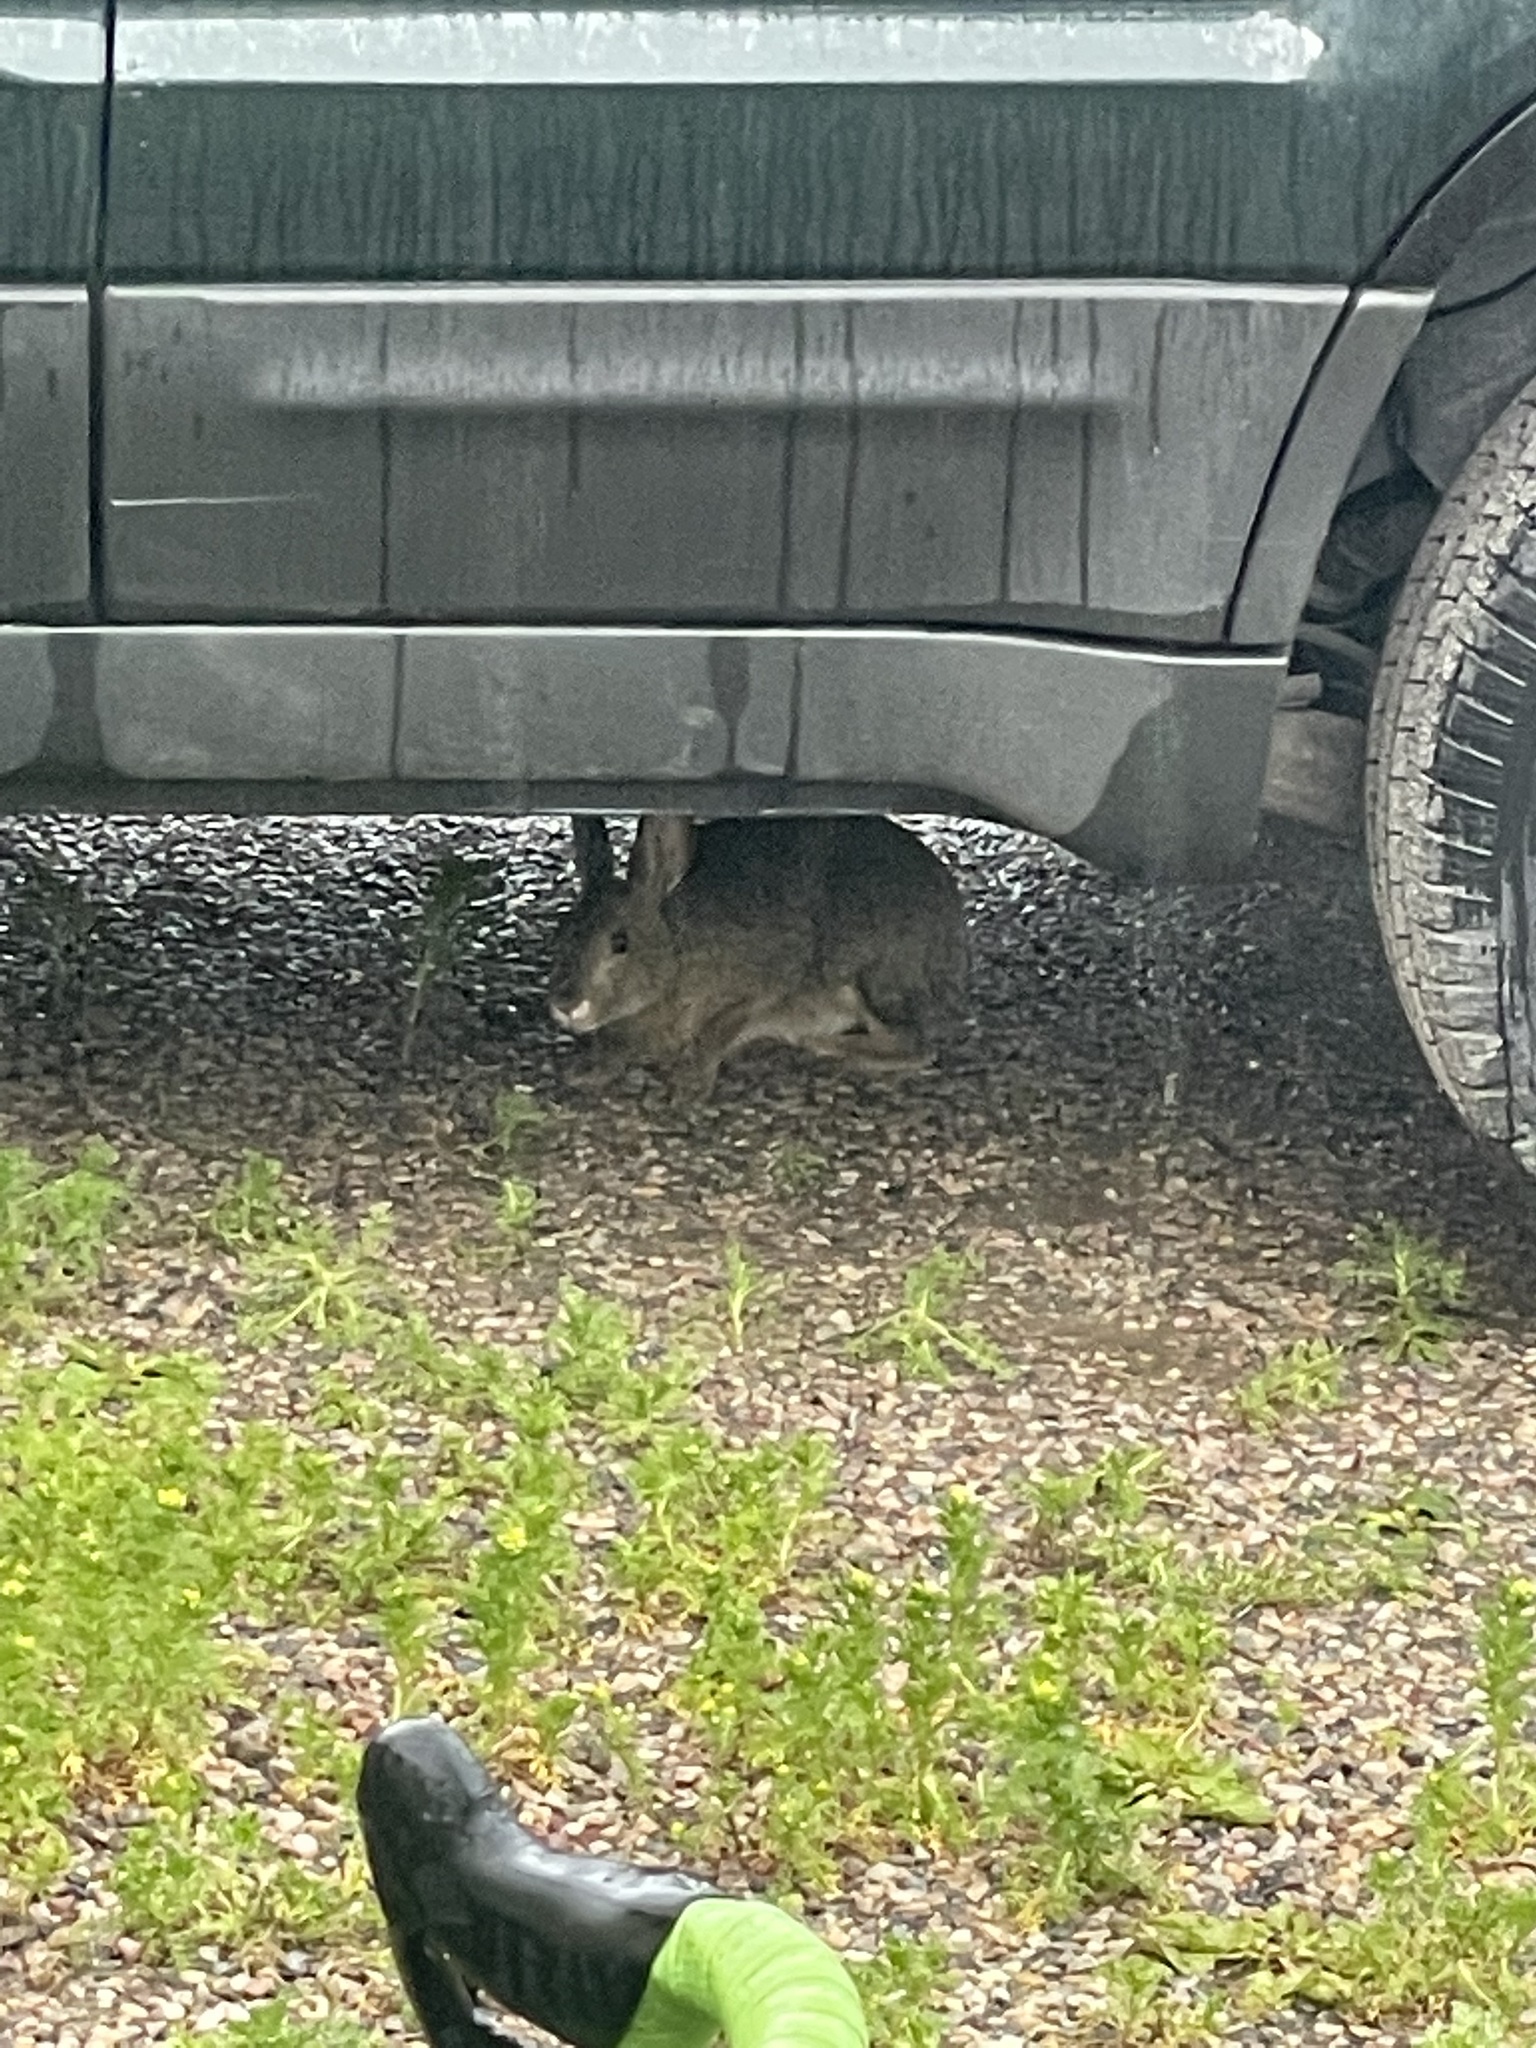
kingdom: Animalia
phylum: Chordata
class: Mammalia
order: Lagomorpha
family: Leporidae
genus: Lepus
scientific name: Lepus americanus
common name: Snowshoe hare
